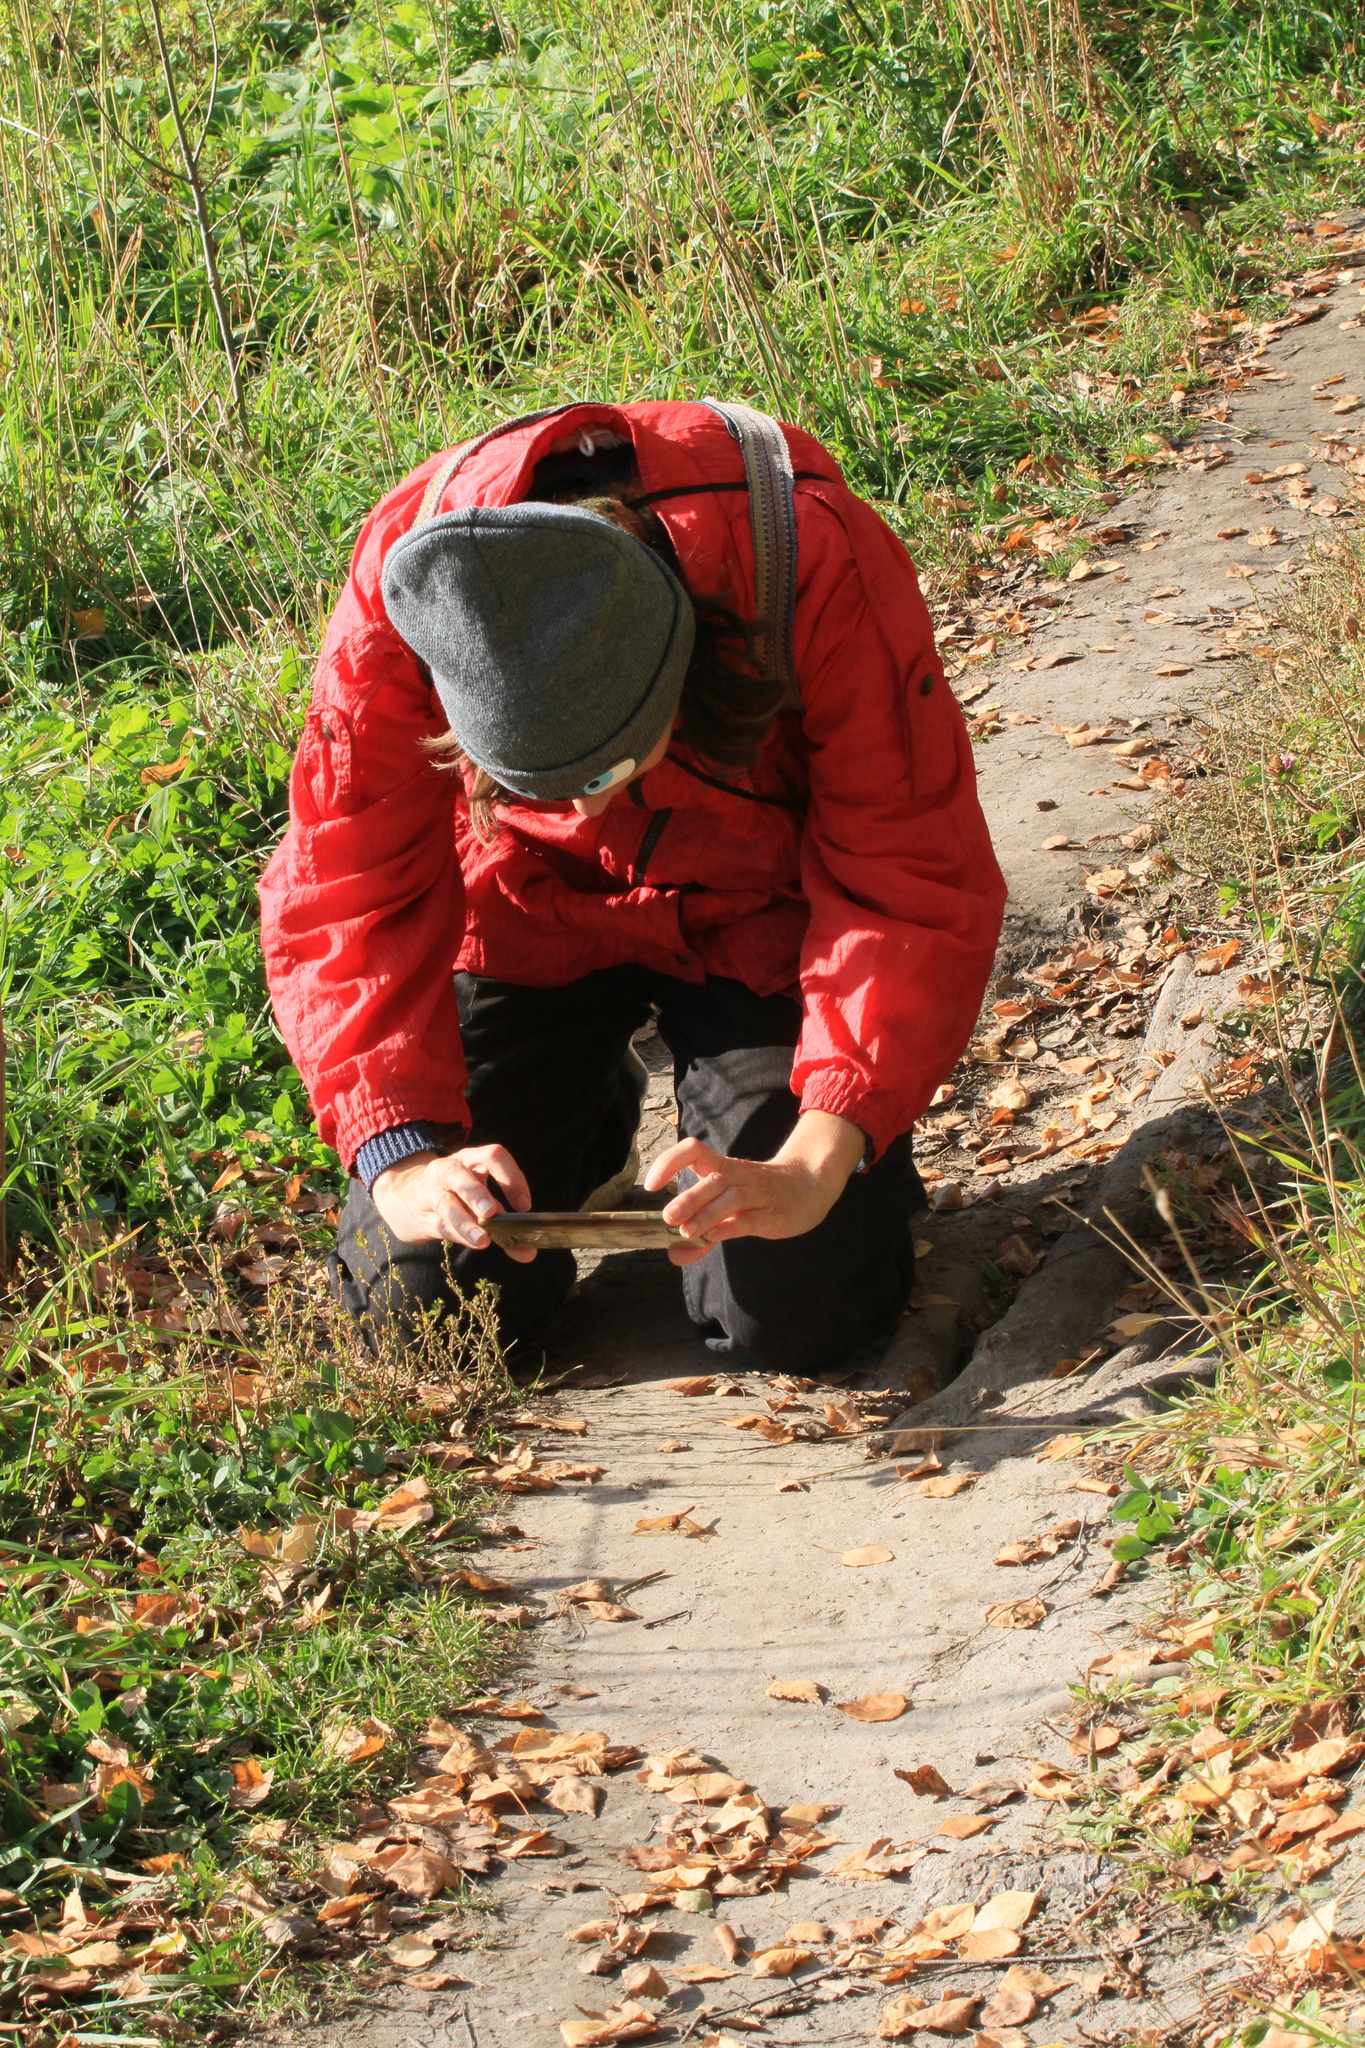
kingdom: Animalia
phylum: Arthropoda
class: Insecta
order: Odonata
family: Libellulidae
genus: Sympetrum
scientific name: Sympetrum croceolum
